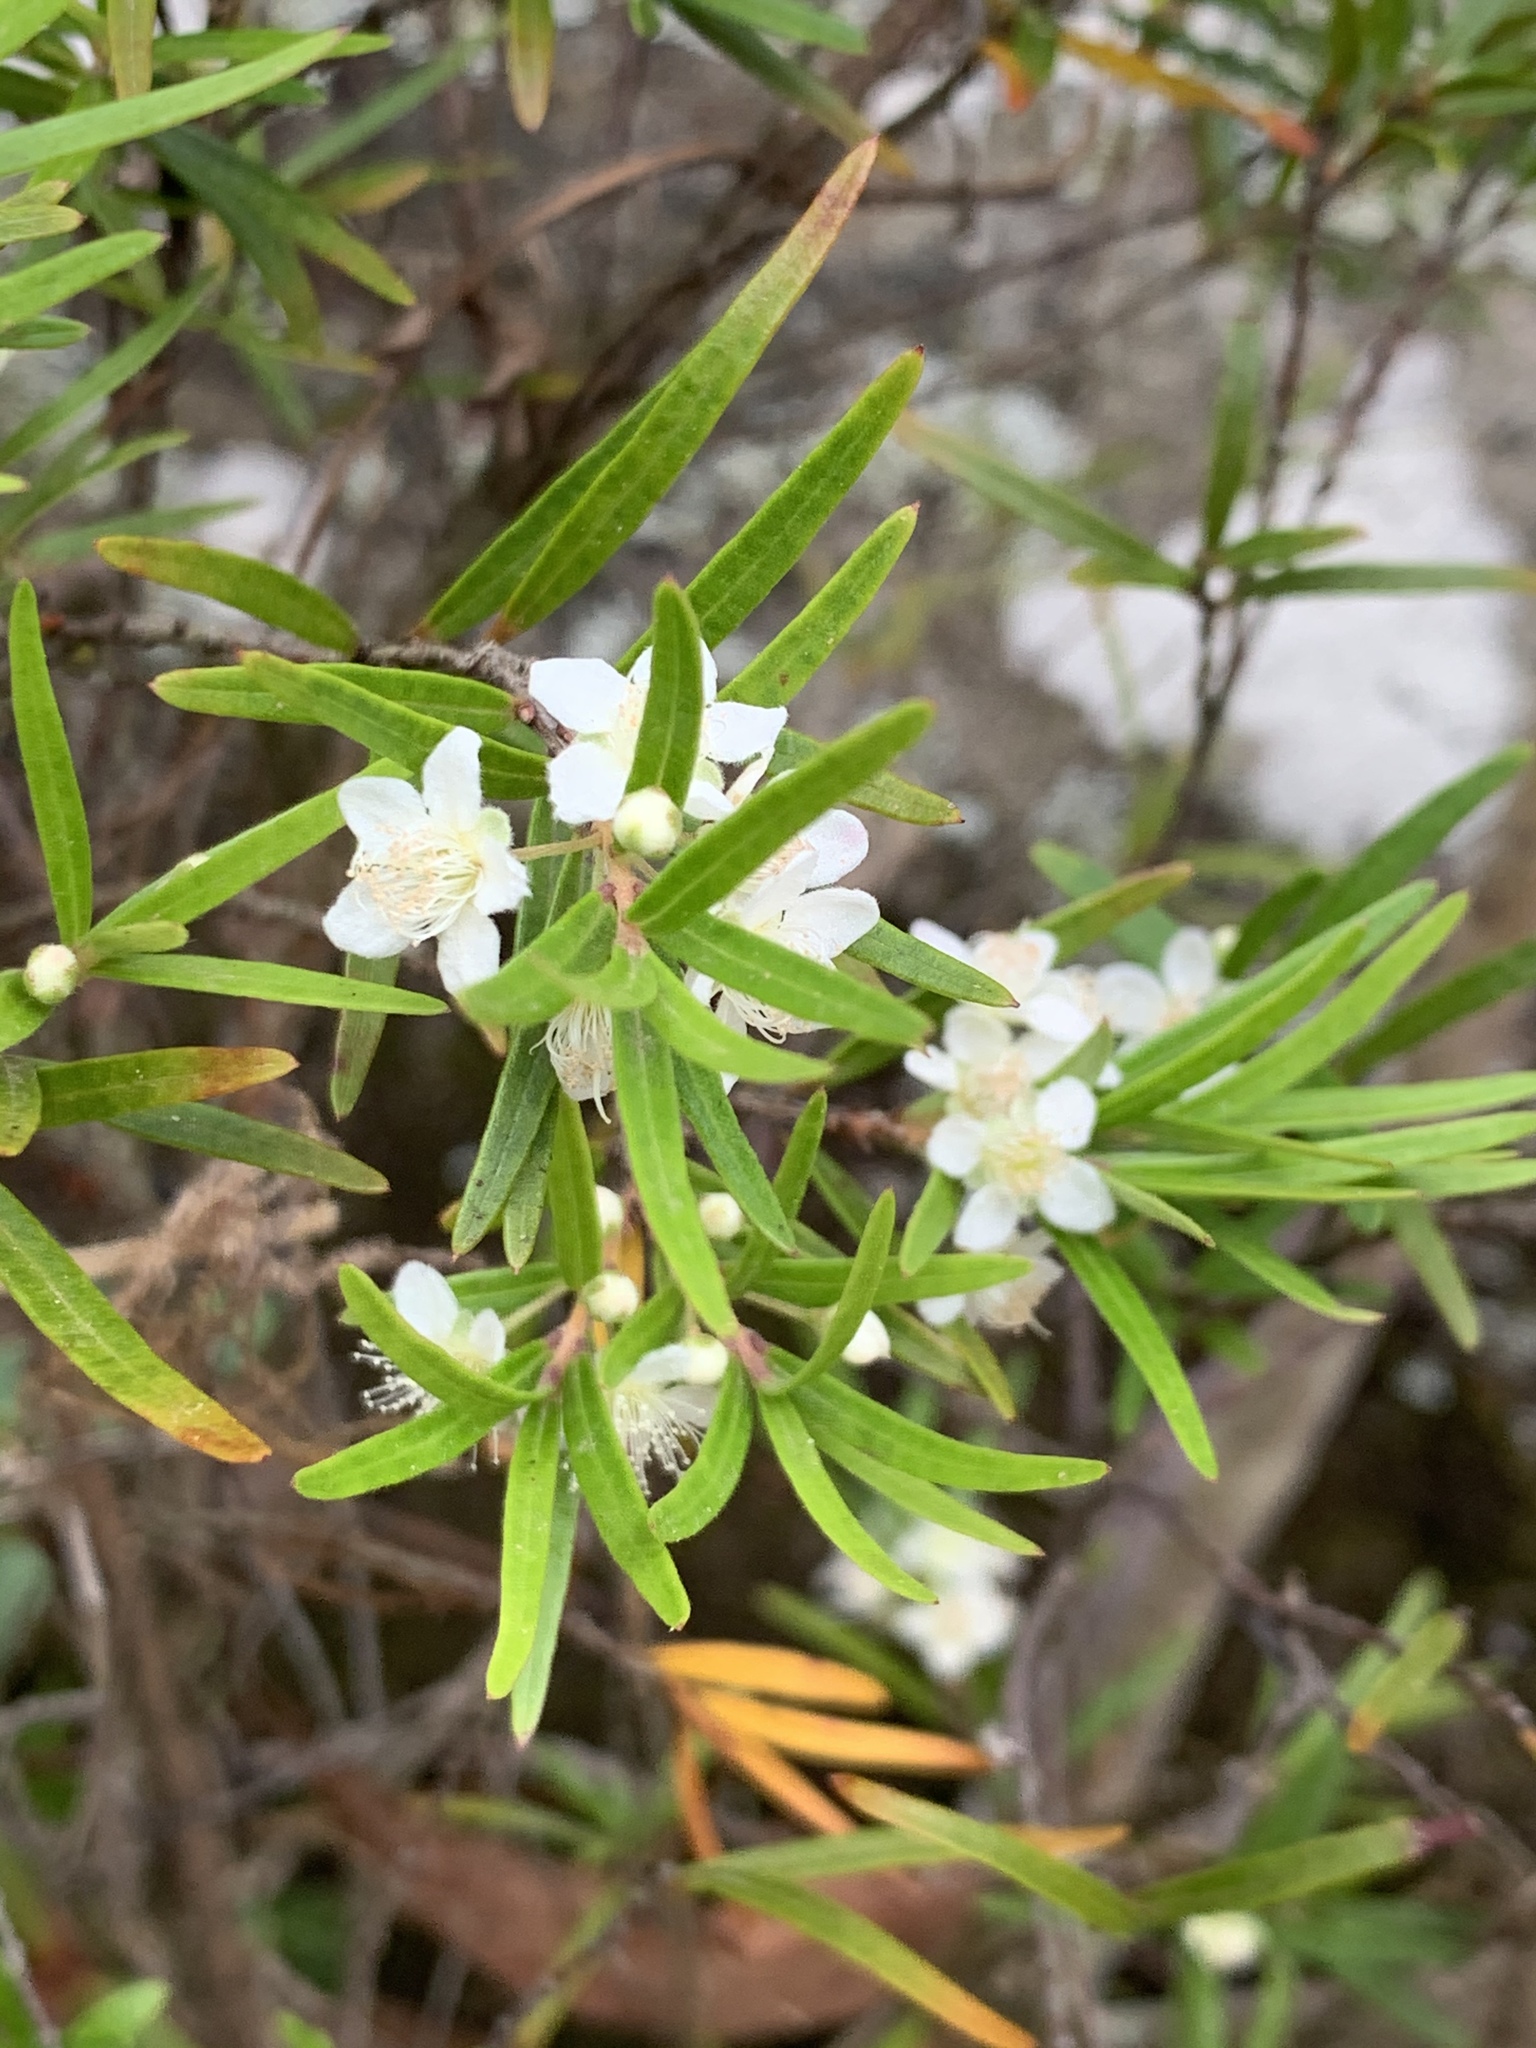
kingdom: Plantae
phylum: Tracheophyta
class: Magnoliopsida
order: Myrtales
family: Myrtaceae
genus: Austromyrtus
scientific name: Austromyrtus tenuifolia
